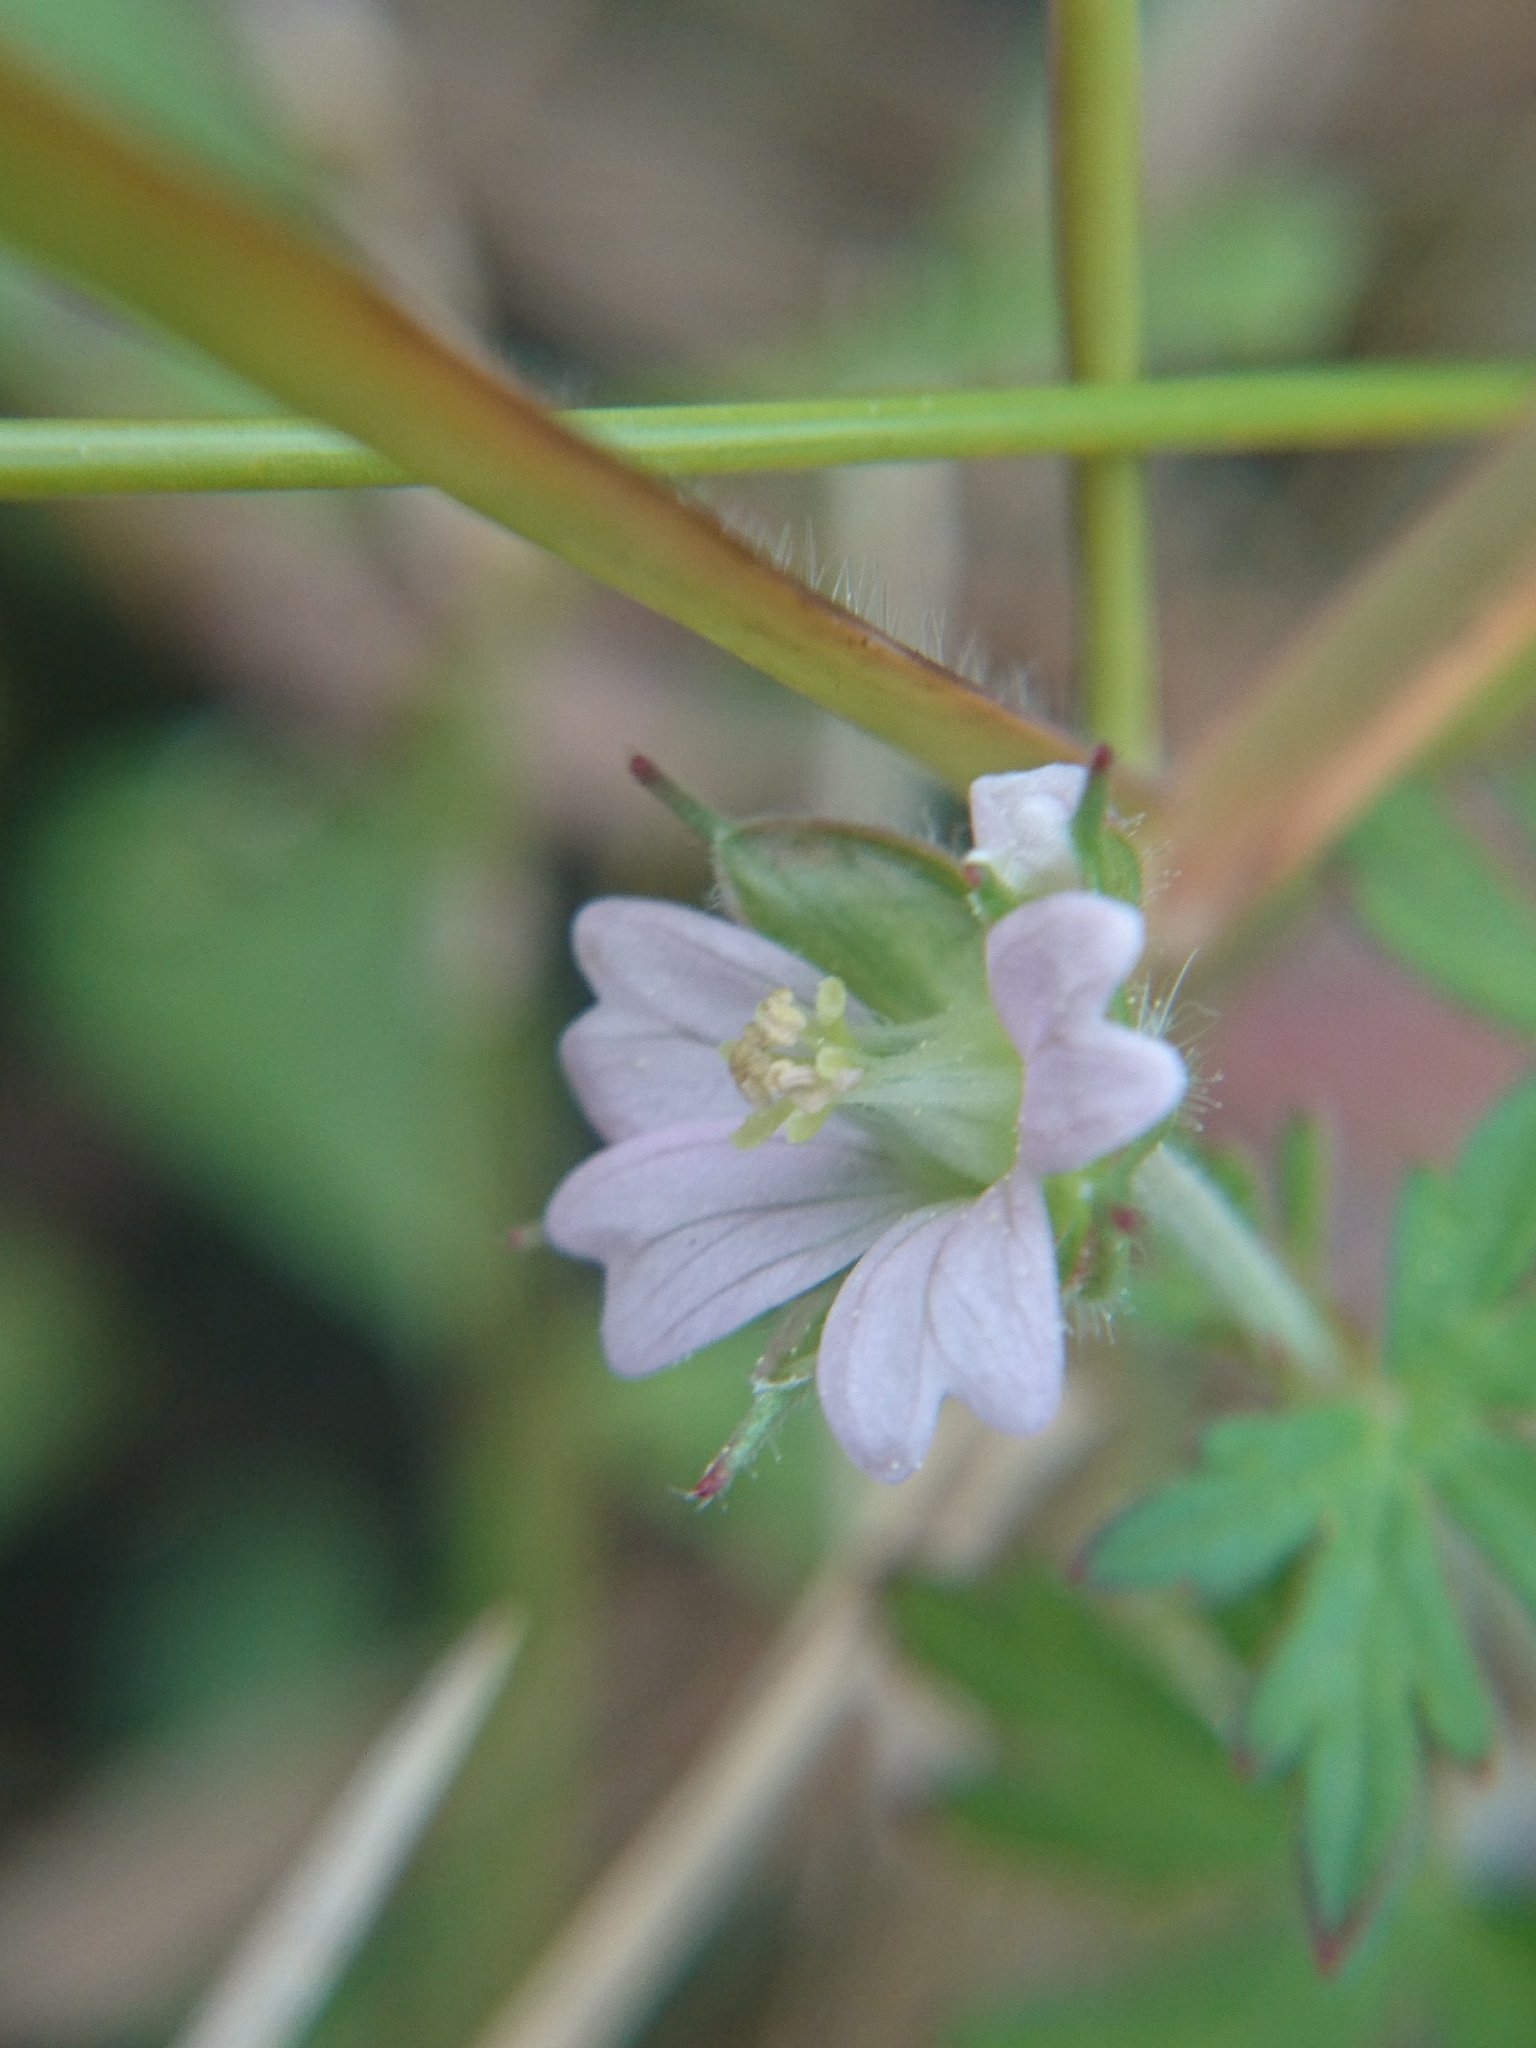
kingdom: Plantae
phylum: Tracheophyta
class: Magnoliopsida
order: Geraniales
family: Geraniaceae
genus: Geranium
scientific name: Geranium carolinianum
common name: Carolina crane's-bill
